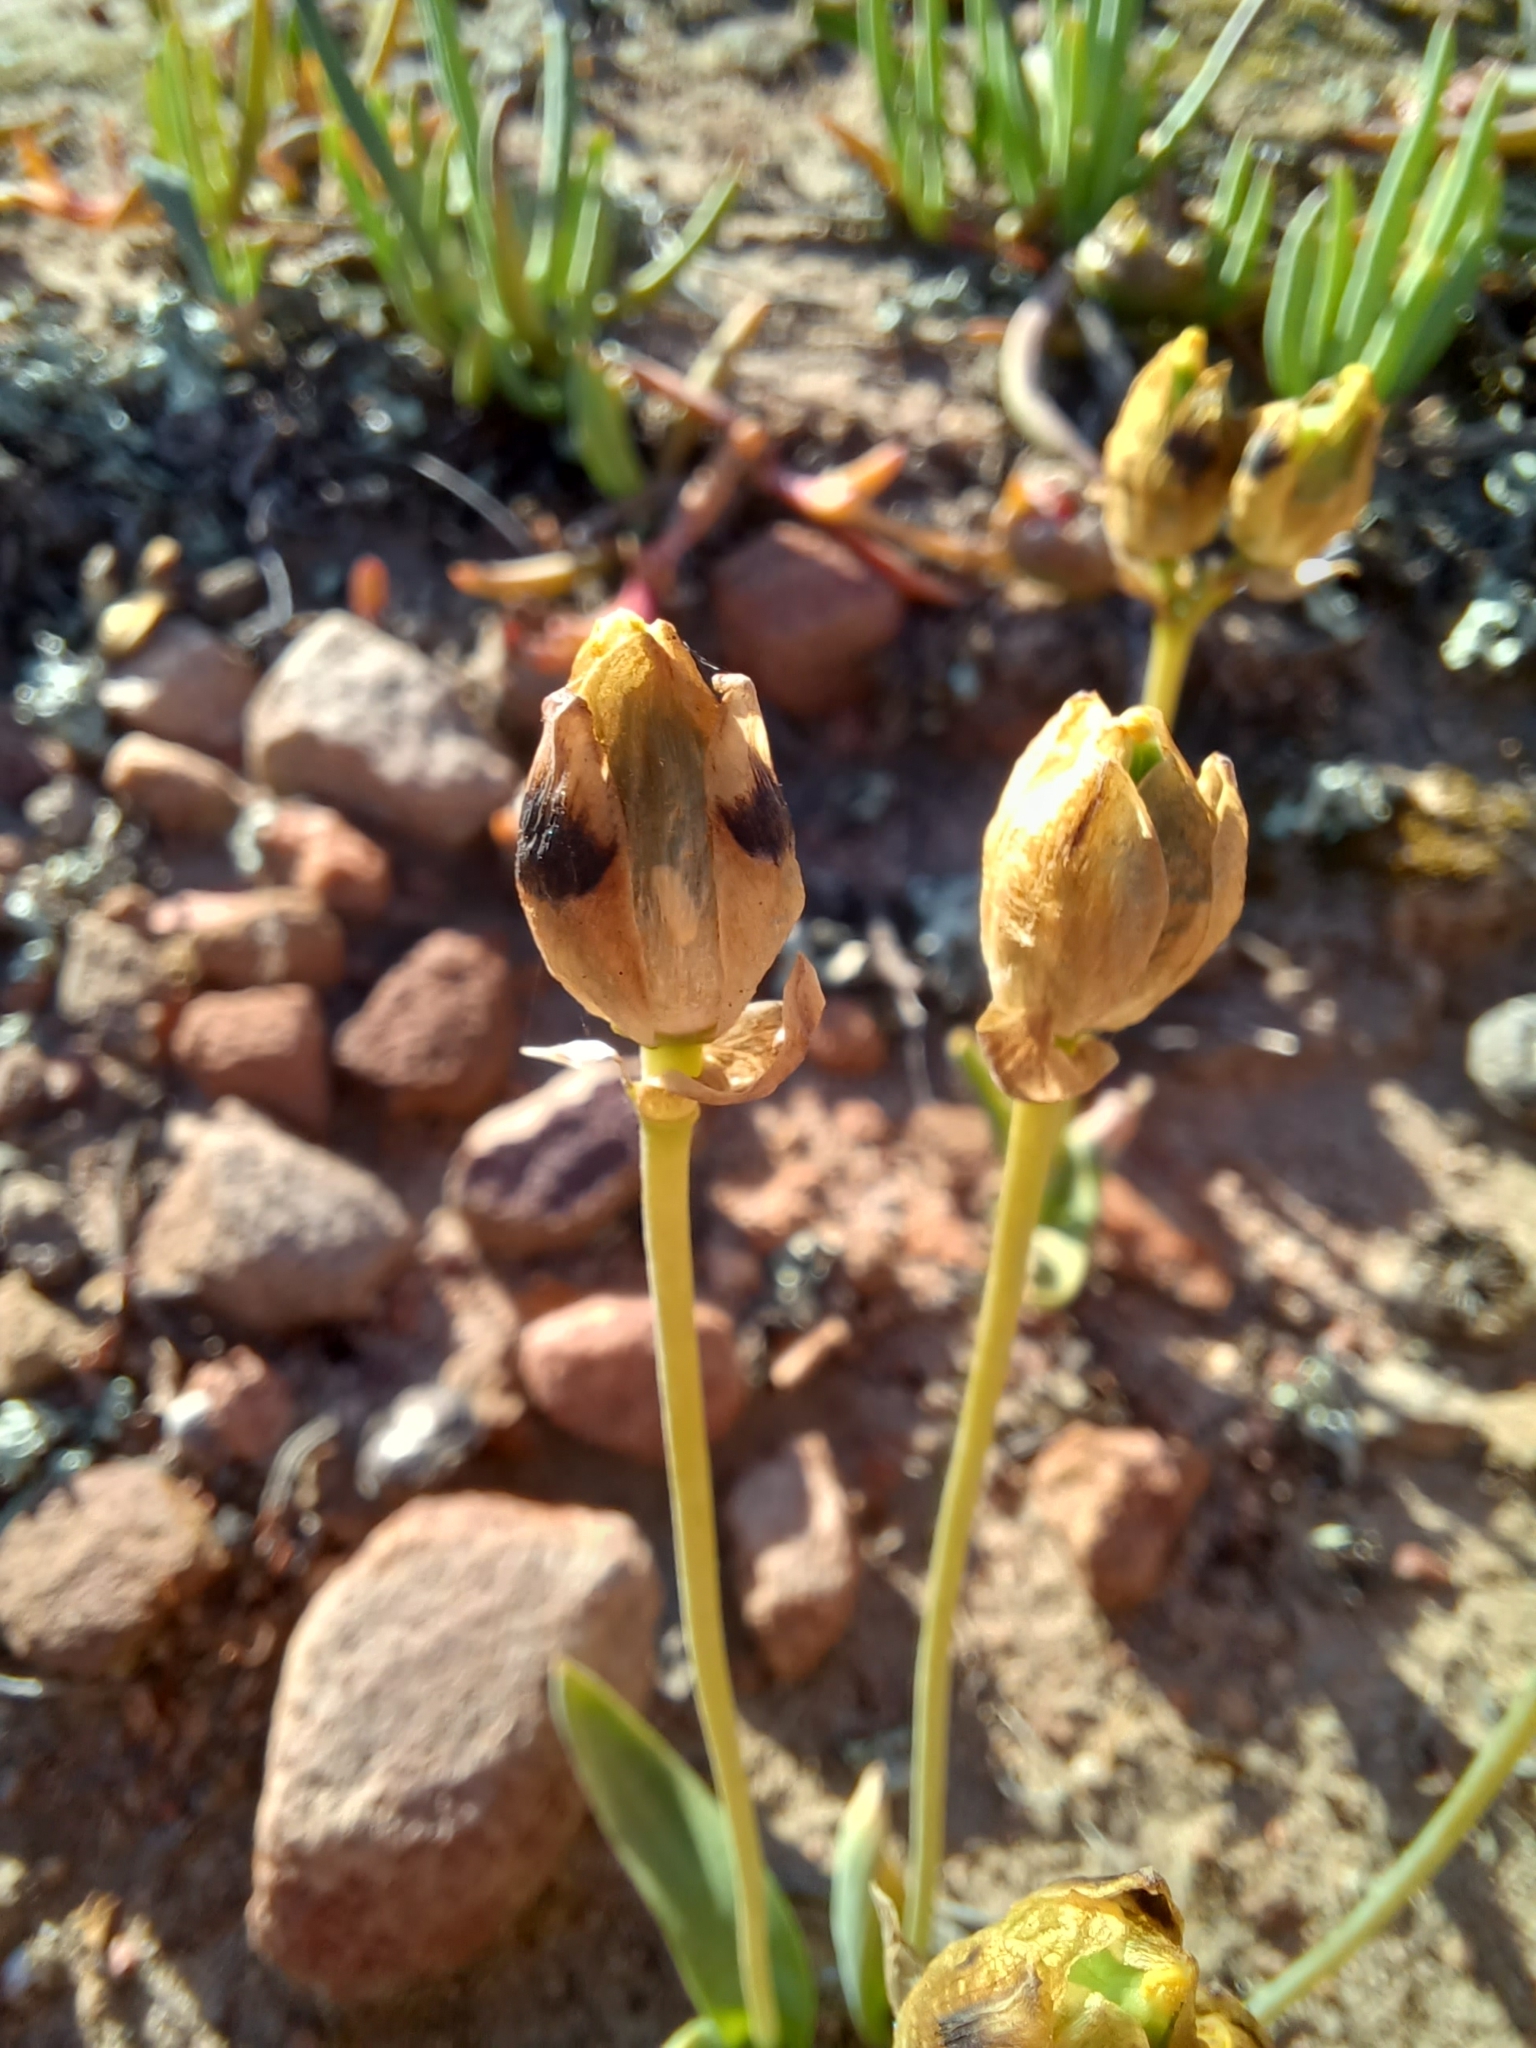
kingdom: Plantae
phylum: Tracheophyta
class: Liliopsida
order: Asparagales
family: Asparagaceae
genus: Ornithogalum
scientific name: Ornithogalum maculatum
